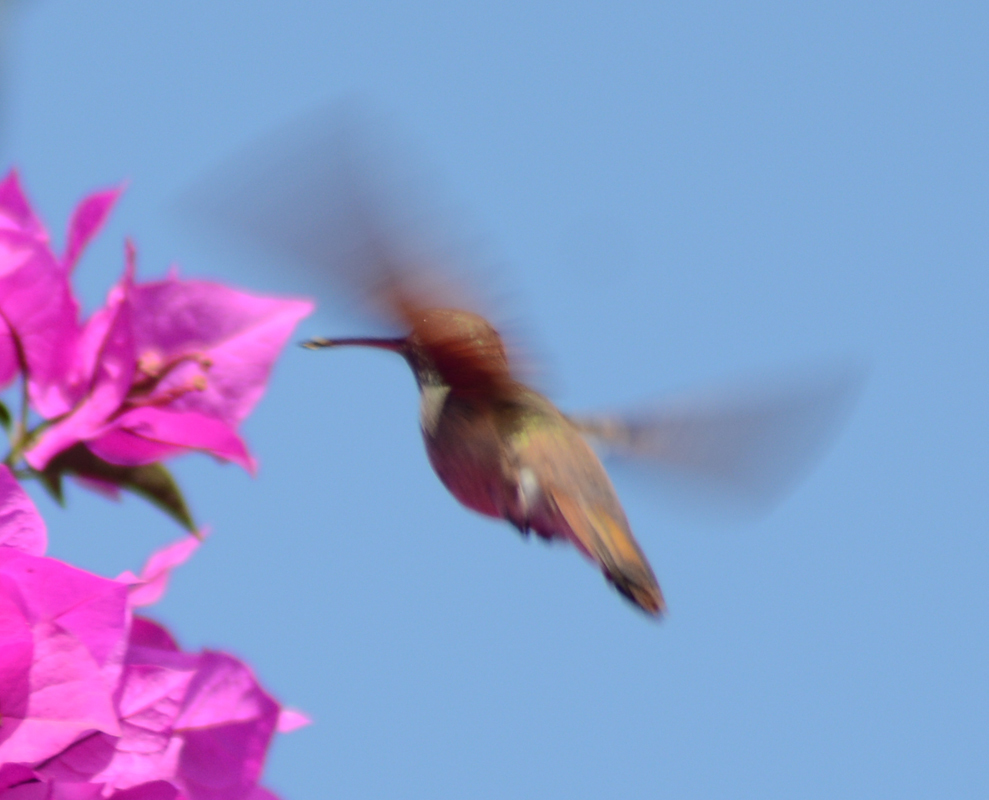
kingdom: Animalia
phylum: Chordata
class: Aves
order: Apodiformes
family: Trochilidae
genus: Saucerottia
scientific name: Saucerottia beryllina
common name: Berylline hummingbird
